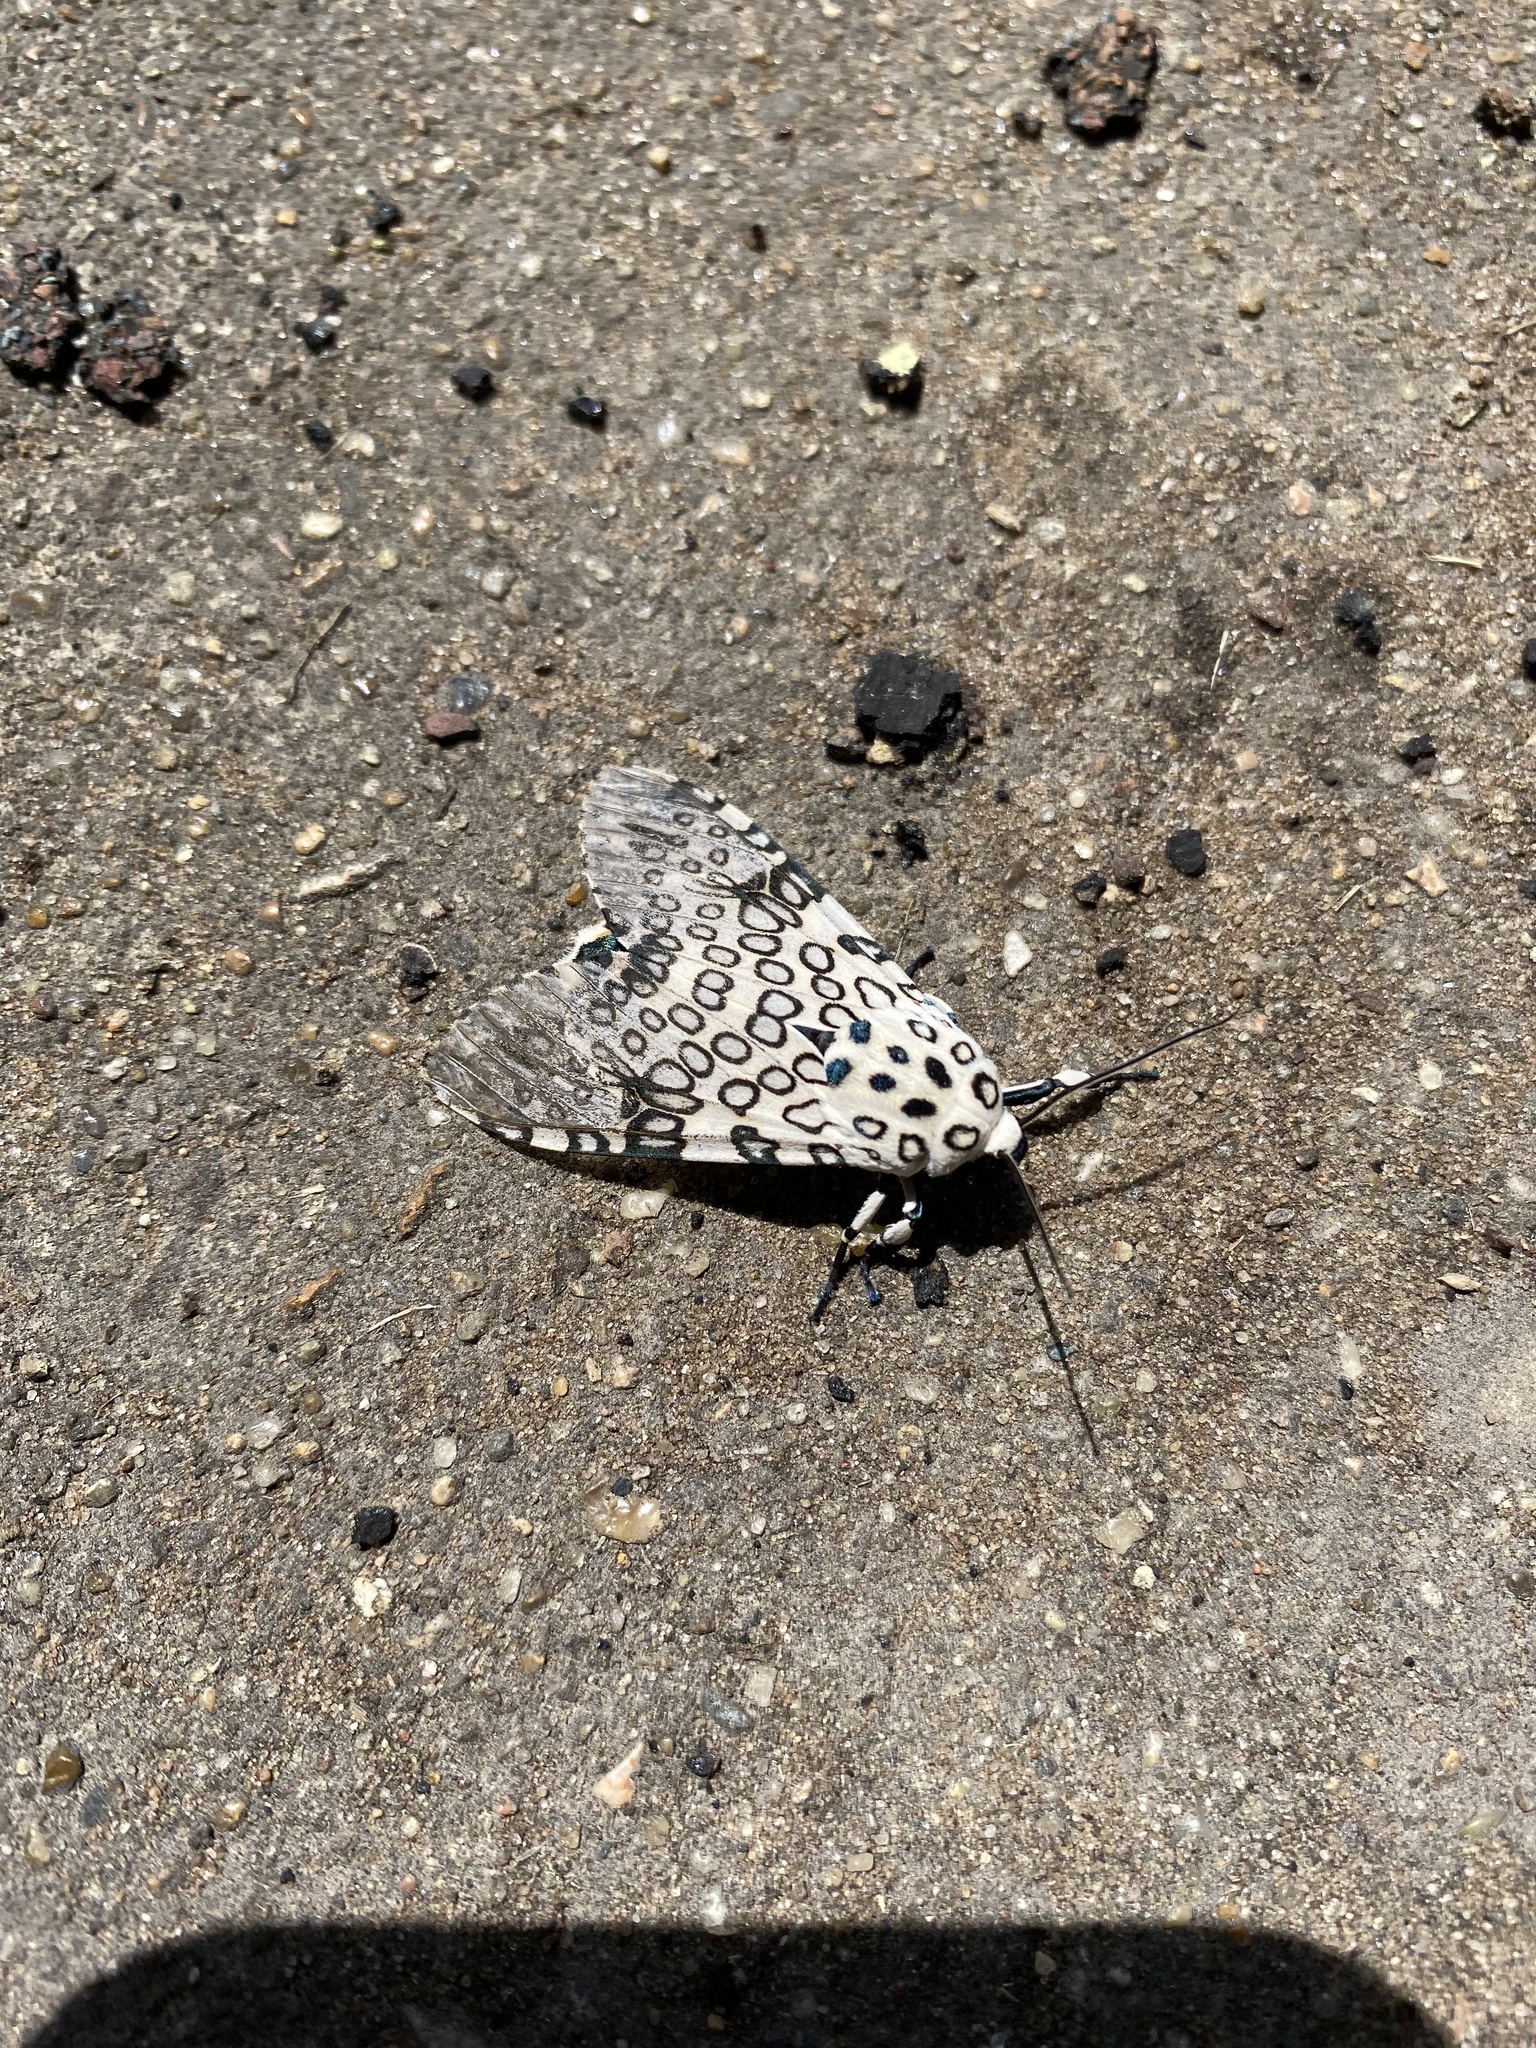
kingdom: Animalia
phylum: Arthropoda
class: Insecta
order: Lepidoptera
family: Erebidae
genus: Hypercompe
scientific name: Hypercompe scribonia
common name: Giant leopard moth
